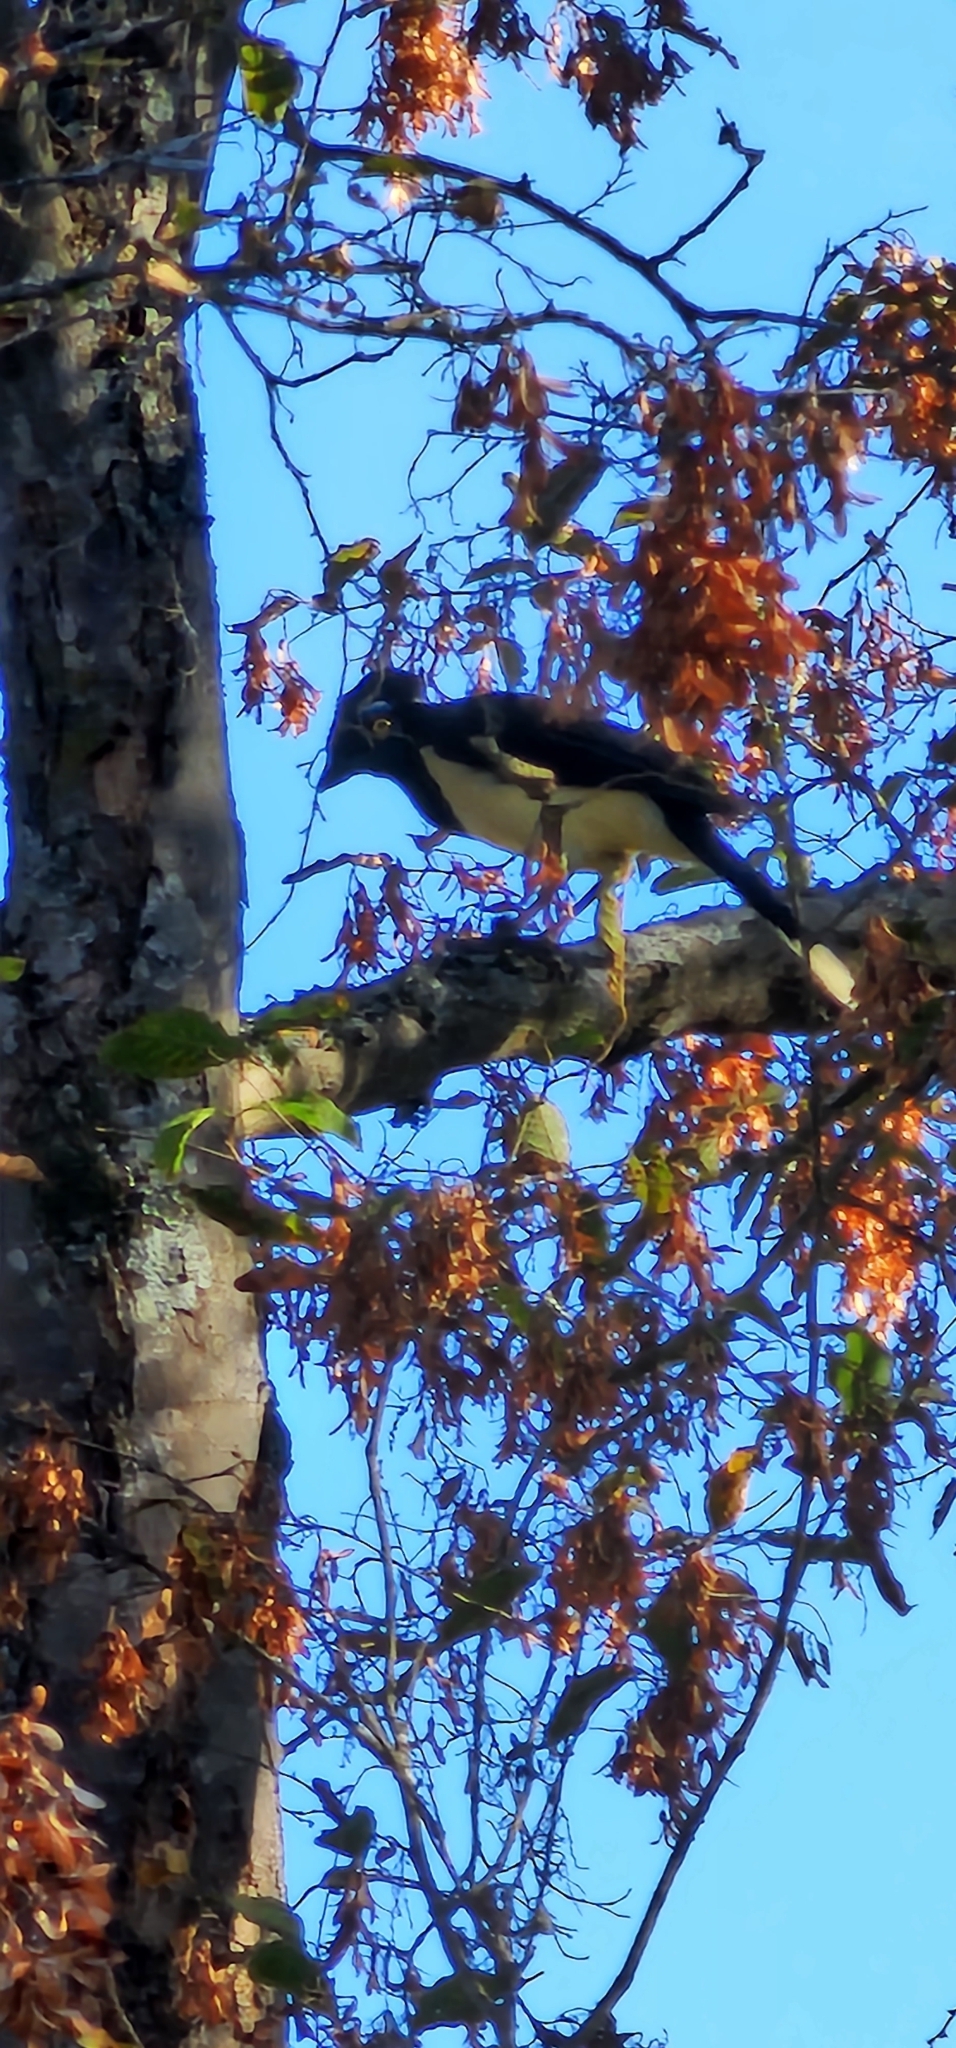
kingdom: Animalia
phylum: Chordata
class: Aves
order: Passeriformes
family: Corvidae
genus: Cyanocorax
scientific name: Cyanocorax chrysops
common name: Plush-crested jay
